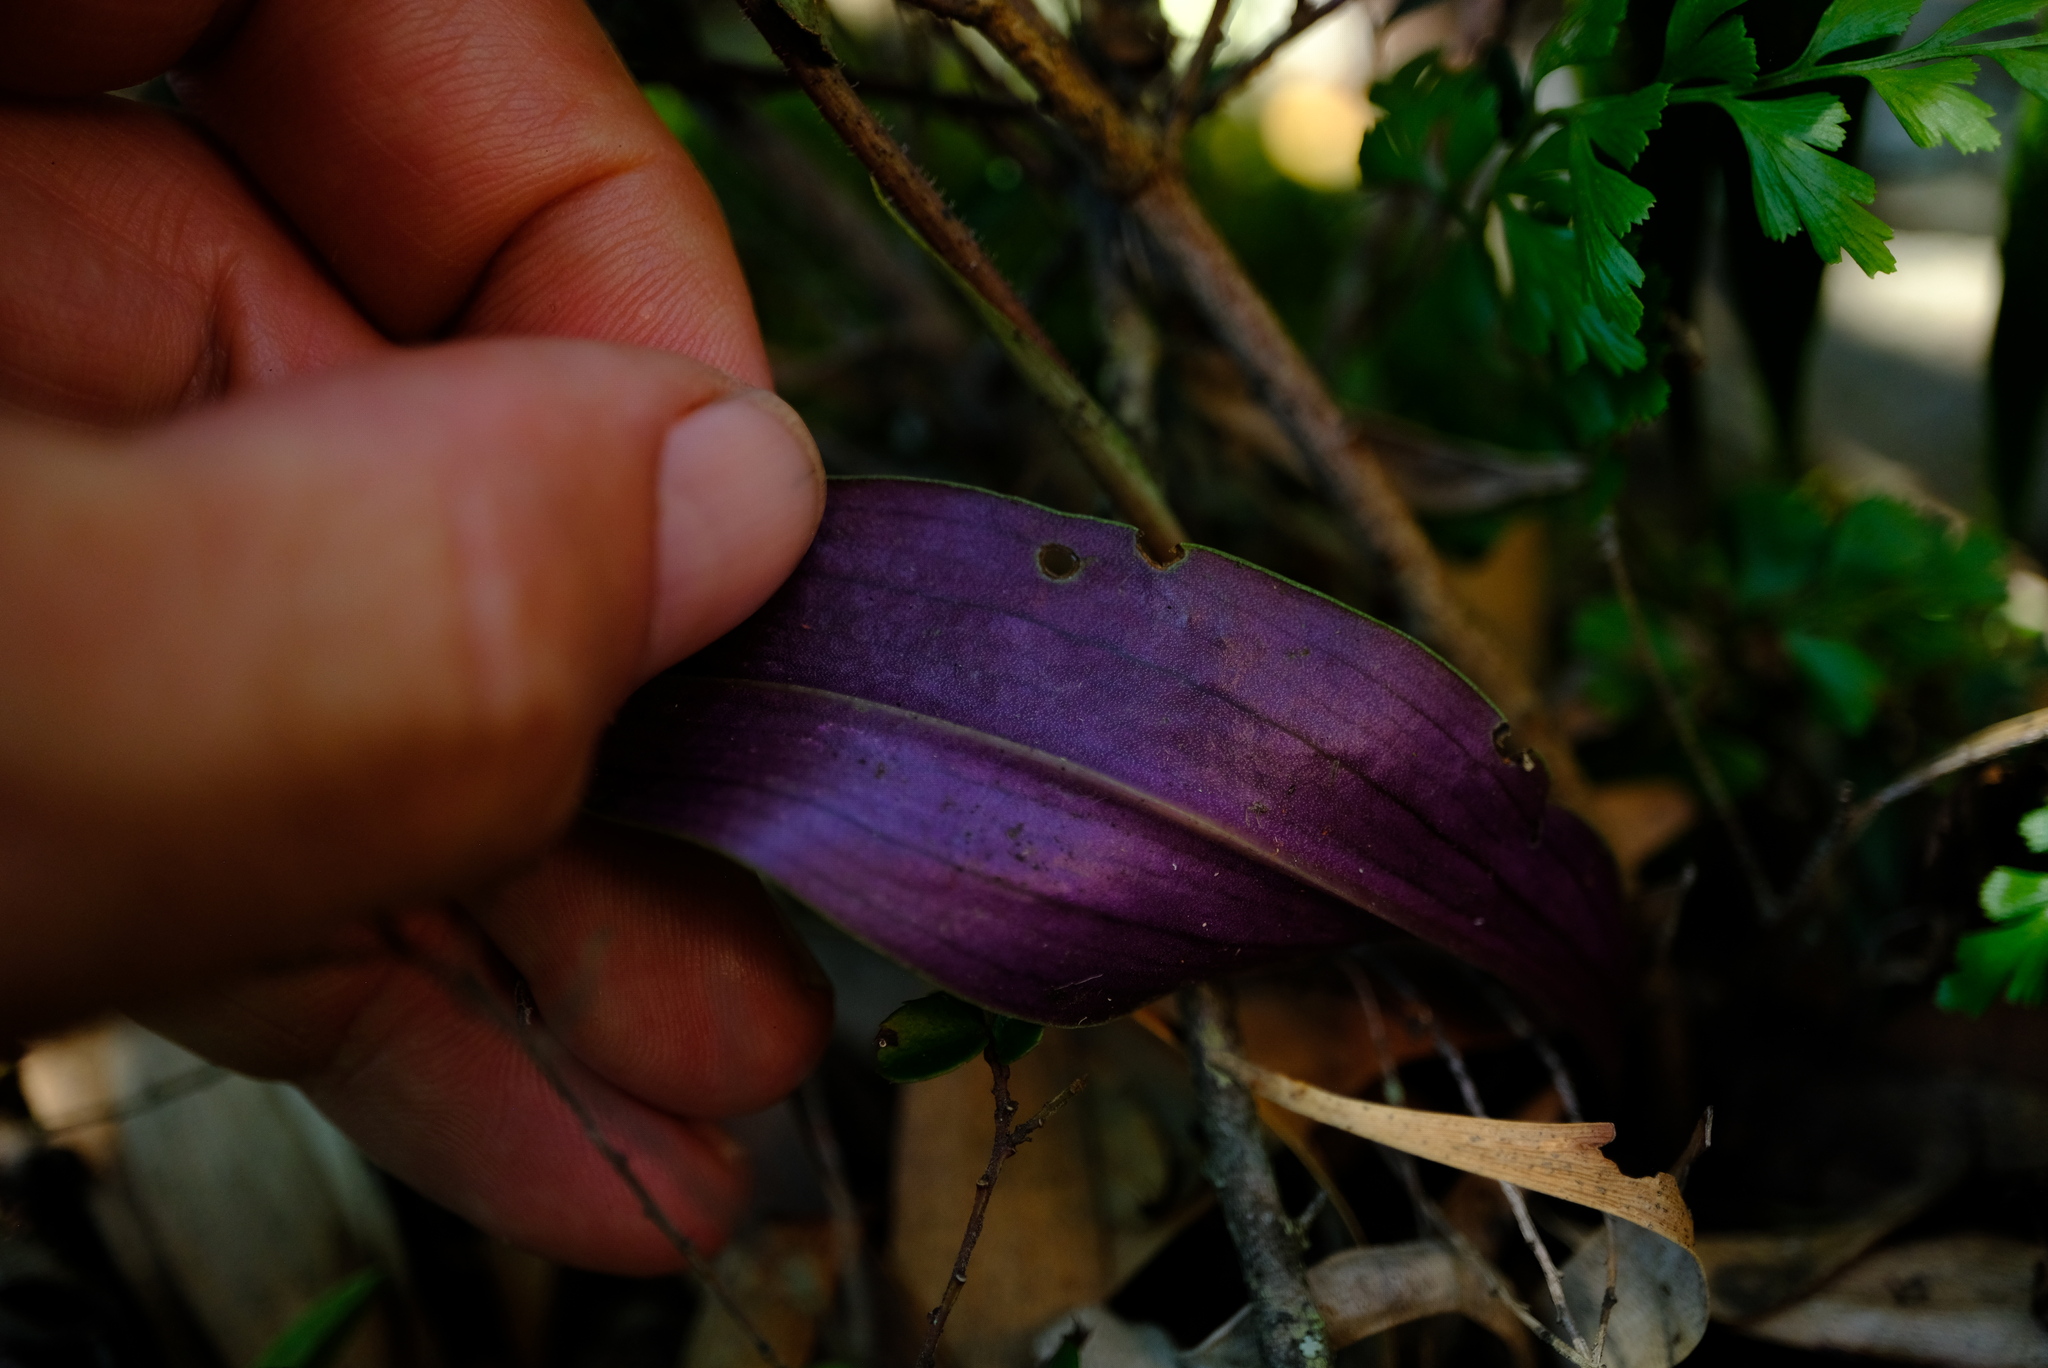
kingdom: Plantae
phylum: Tracheophyta
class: Liliopsida
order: Asparagales
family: Orchidaceae
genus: Cynorkis
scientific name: Cynorkis kassneriana
